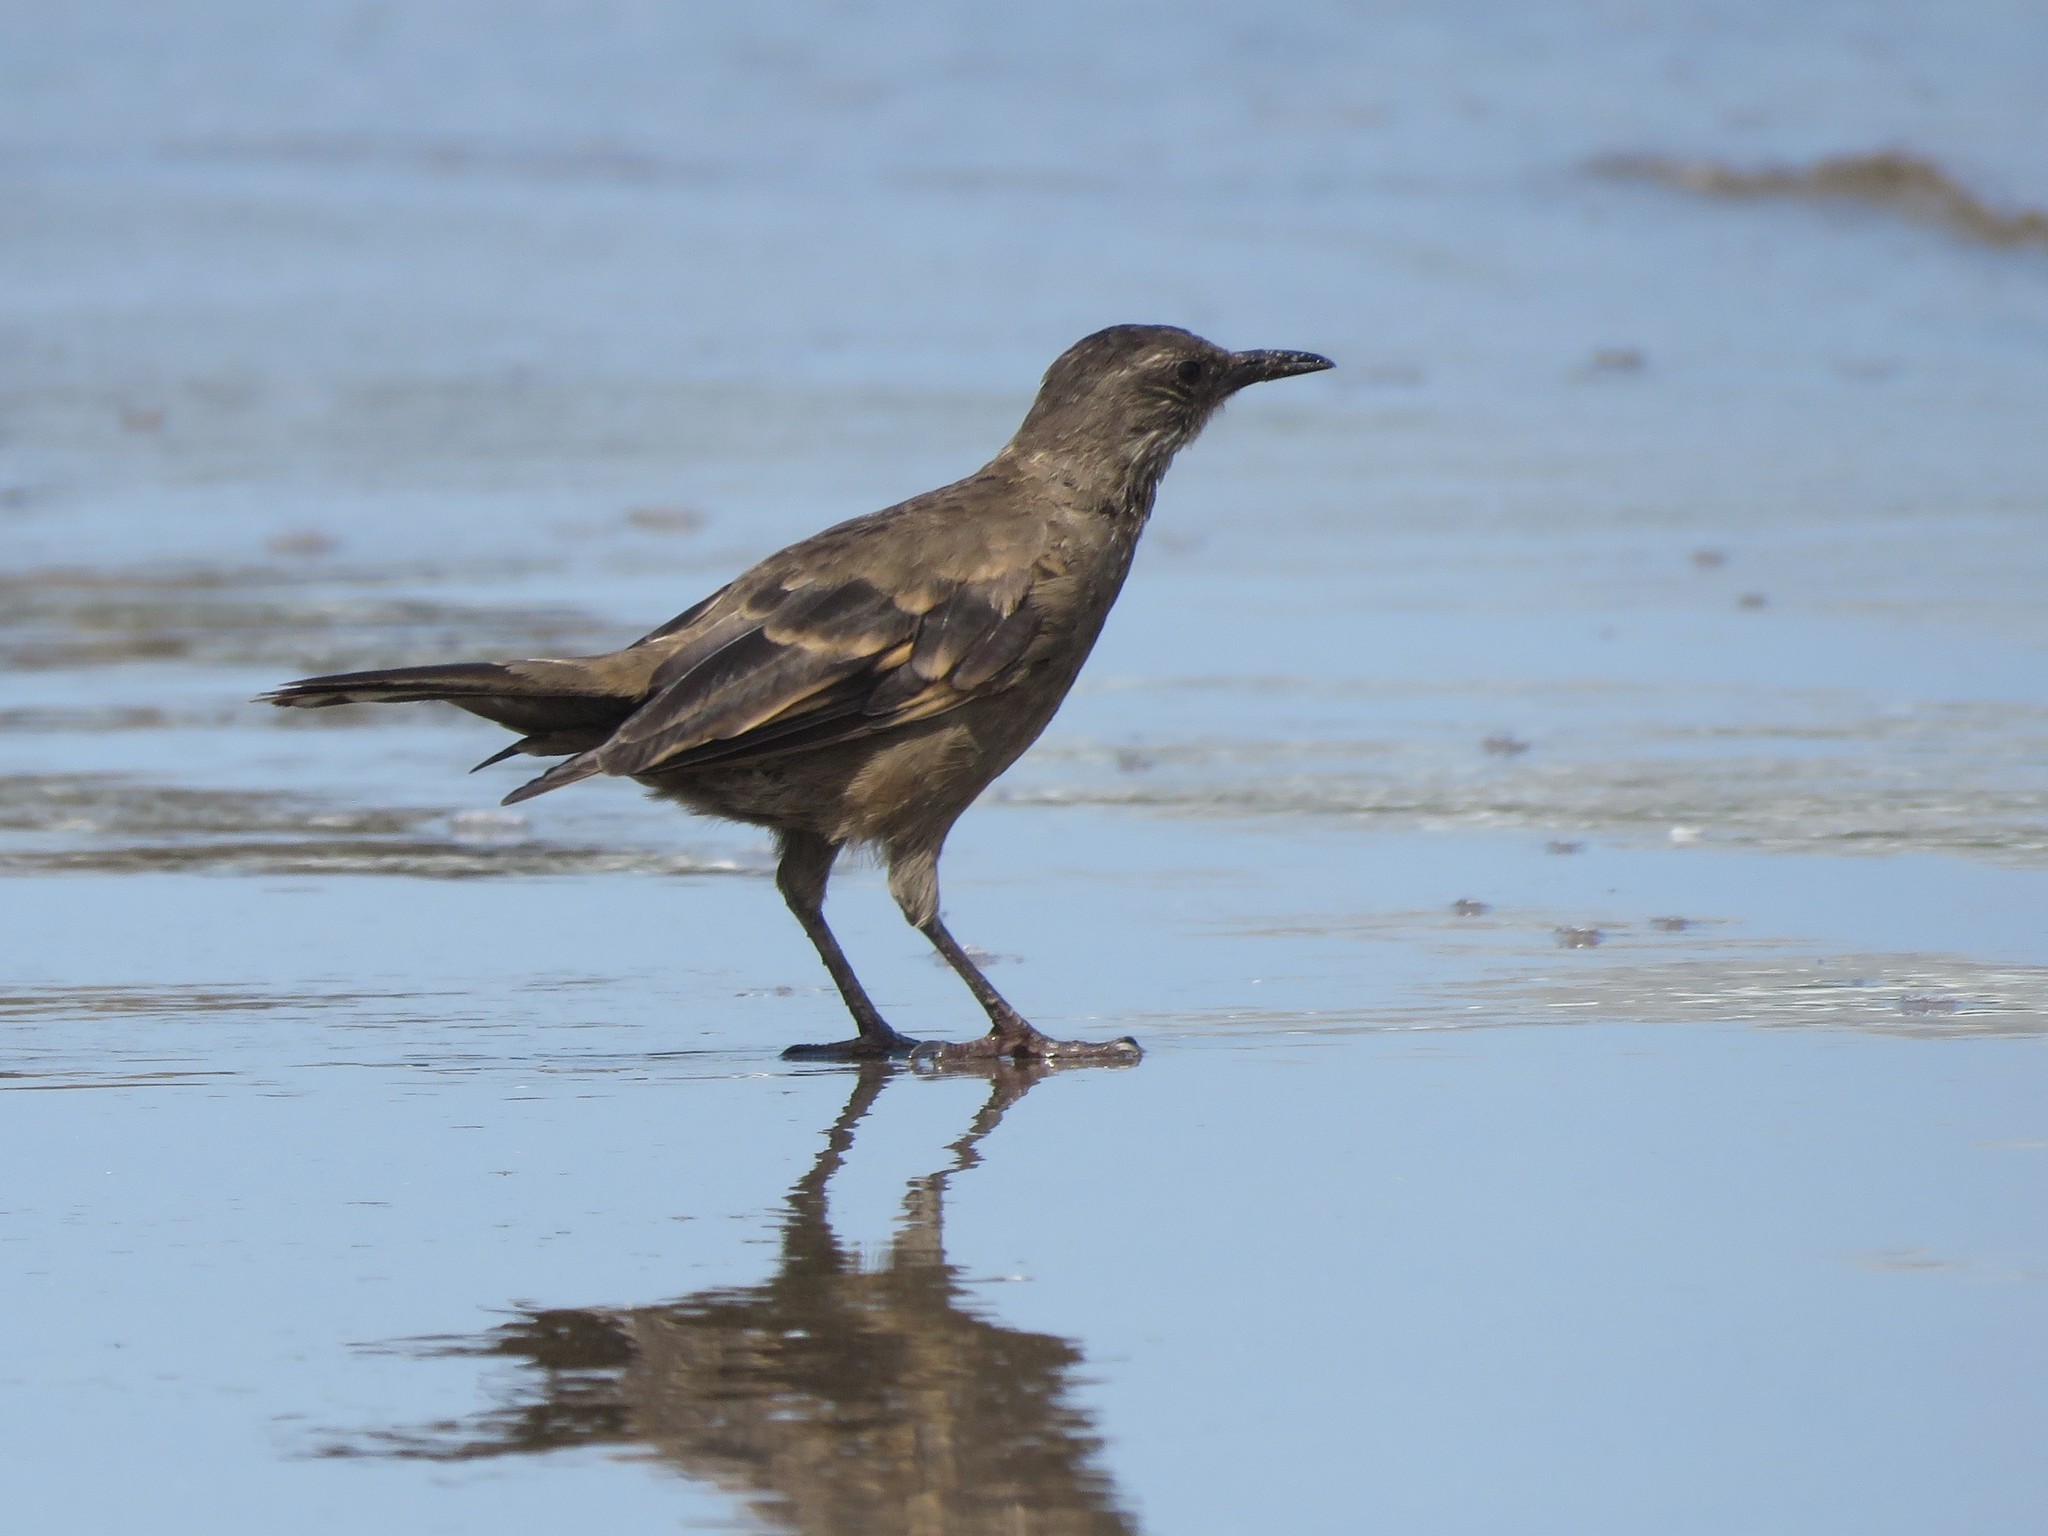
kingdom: Animalia
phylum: Chordata
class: Aves
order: Passeriformes
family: Furnariidae
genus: Cinclodes
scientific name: Cinclodes taczanowskii
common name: Peruvian seaside cinclodes
